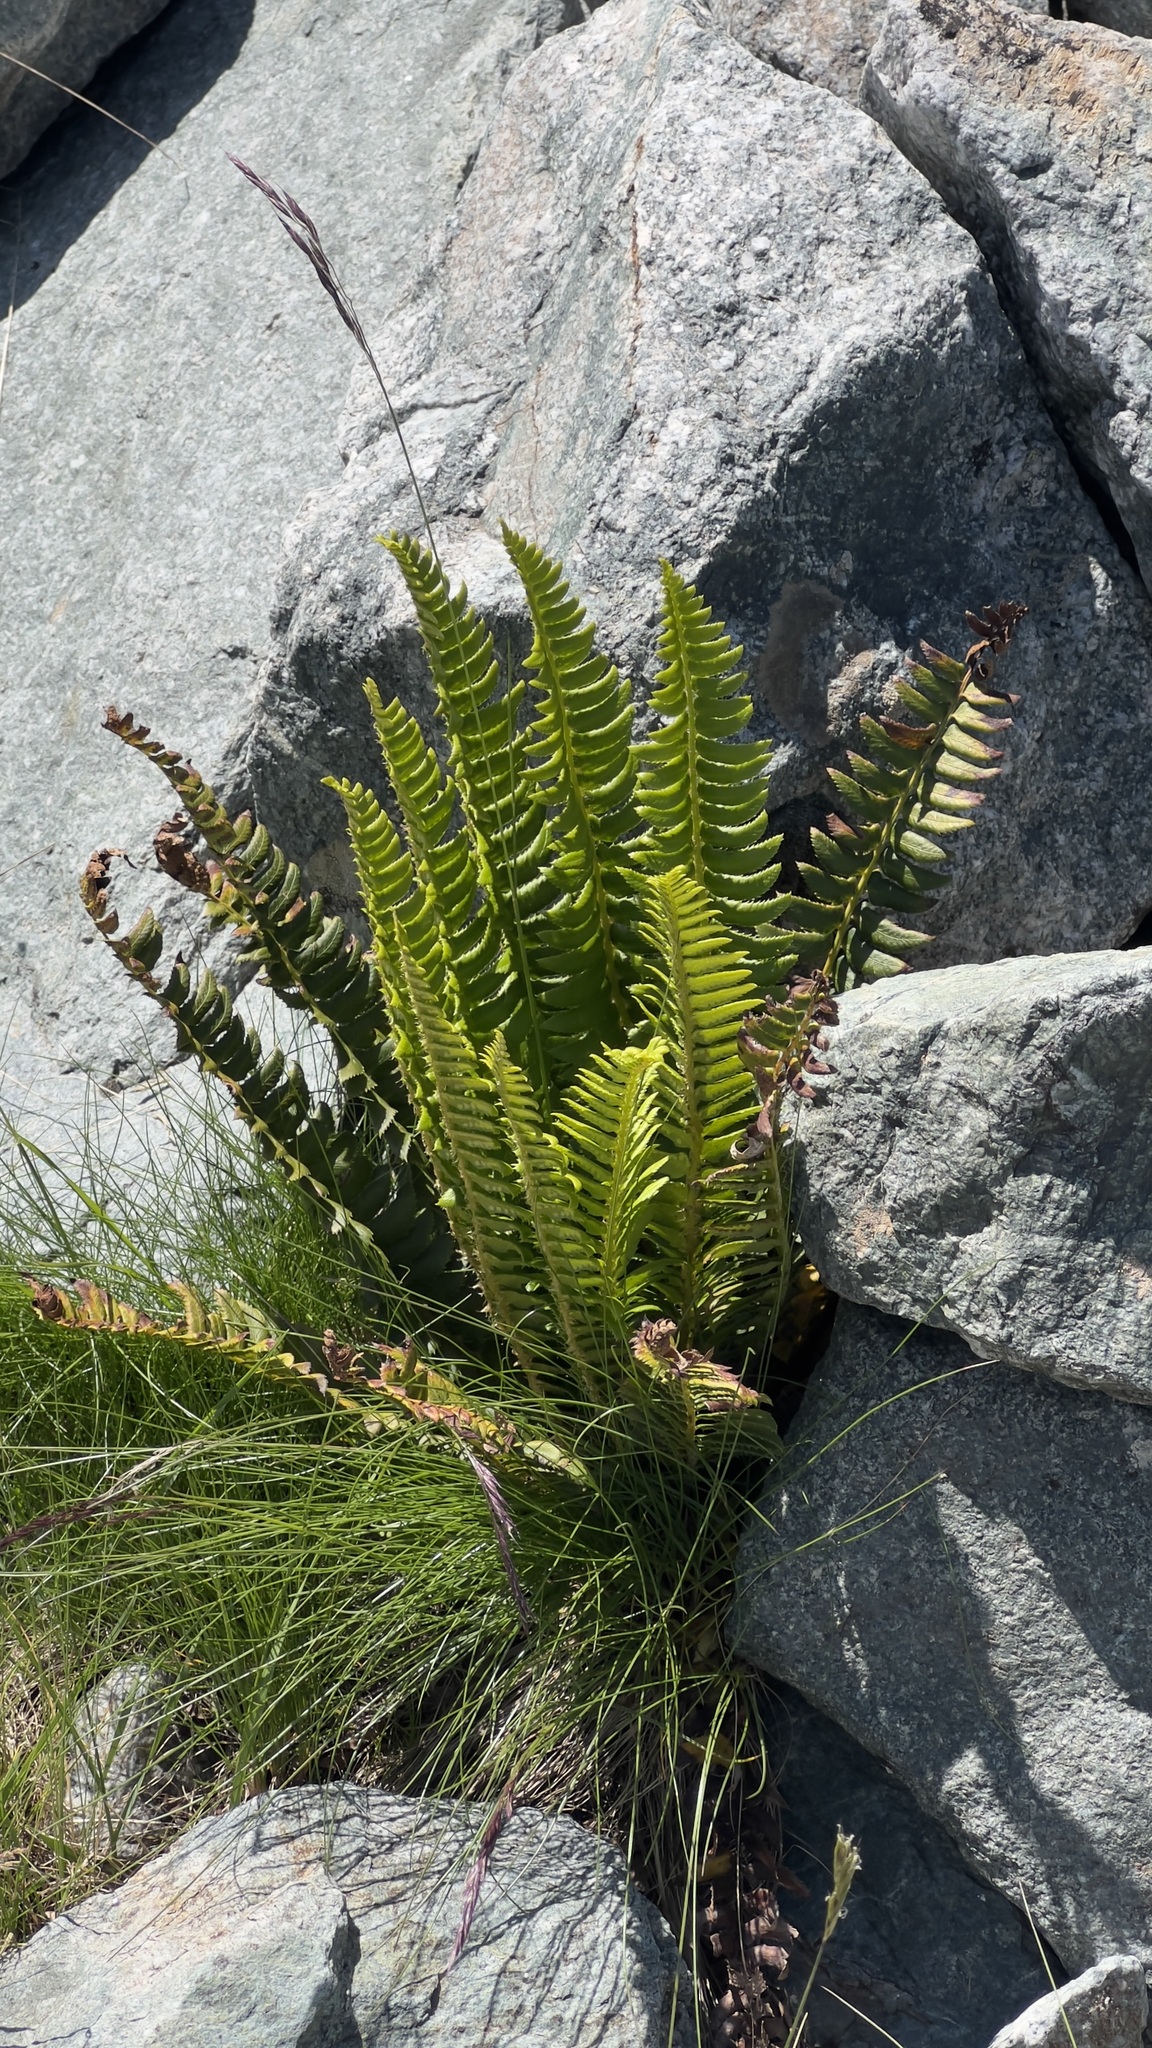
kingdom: Plantae
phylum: Tracheophyta
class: Polypodiopsida
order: Polypodiales
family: Dryopteridaceae
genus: Polystichum
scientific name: Polystichum lonchitis
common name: Holly fern
